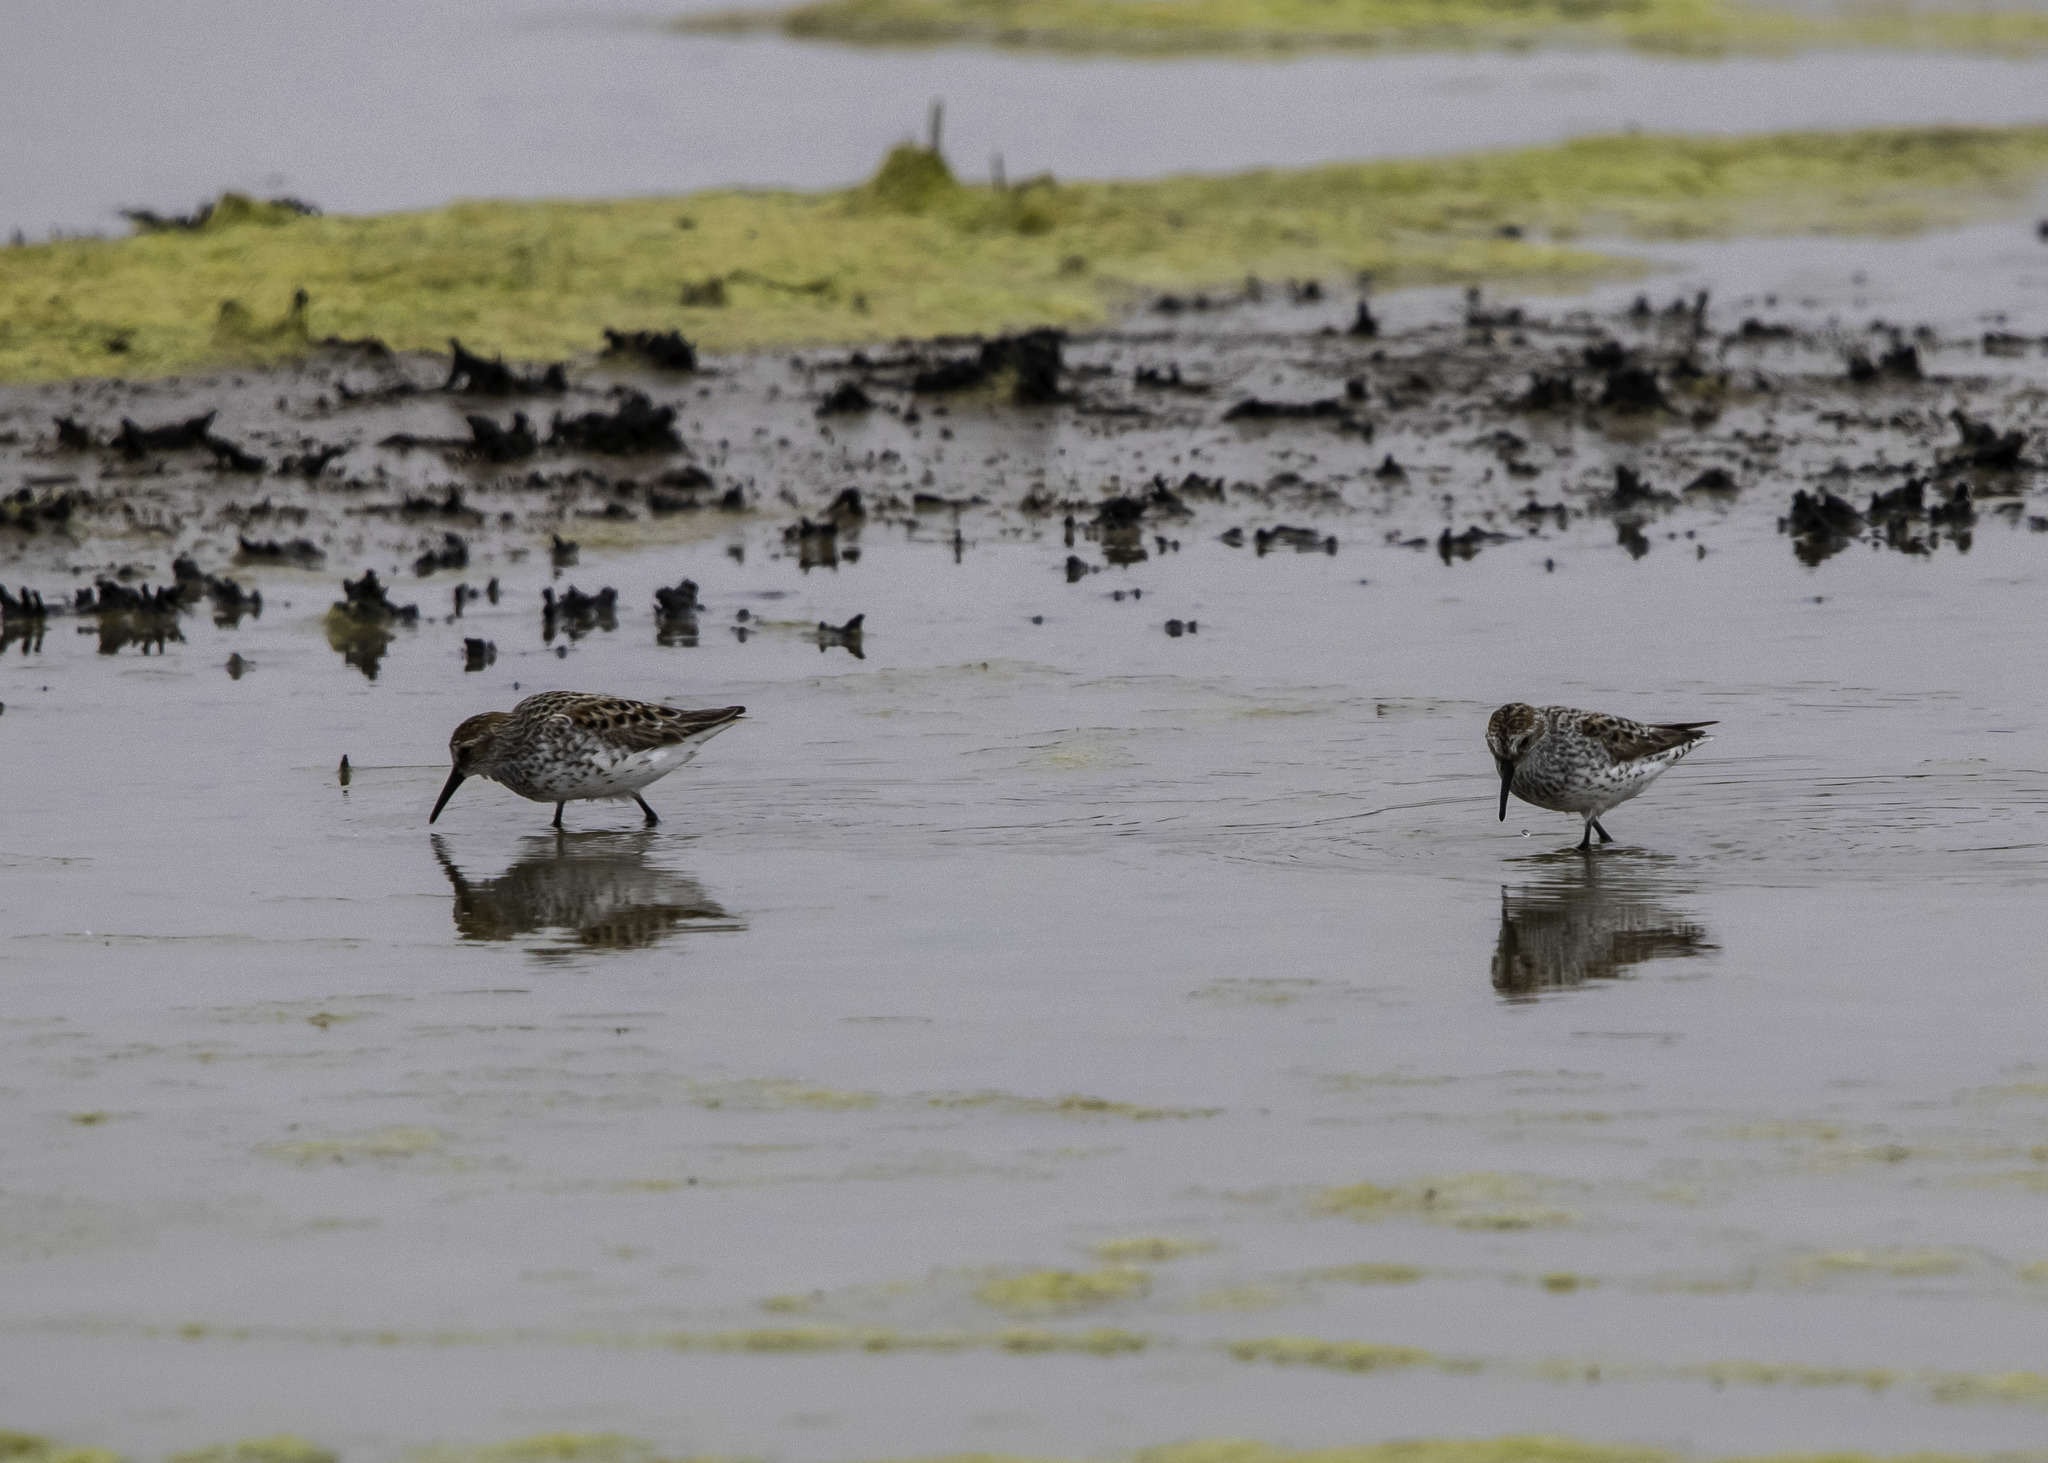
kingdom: Animalia
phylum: Chordata
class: Aves
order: Charadriiformes
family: Scolopacidae
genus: Calidris
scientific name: Calidris mauri
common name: Western sandpiper
